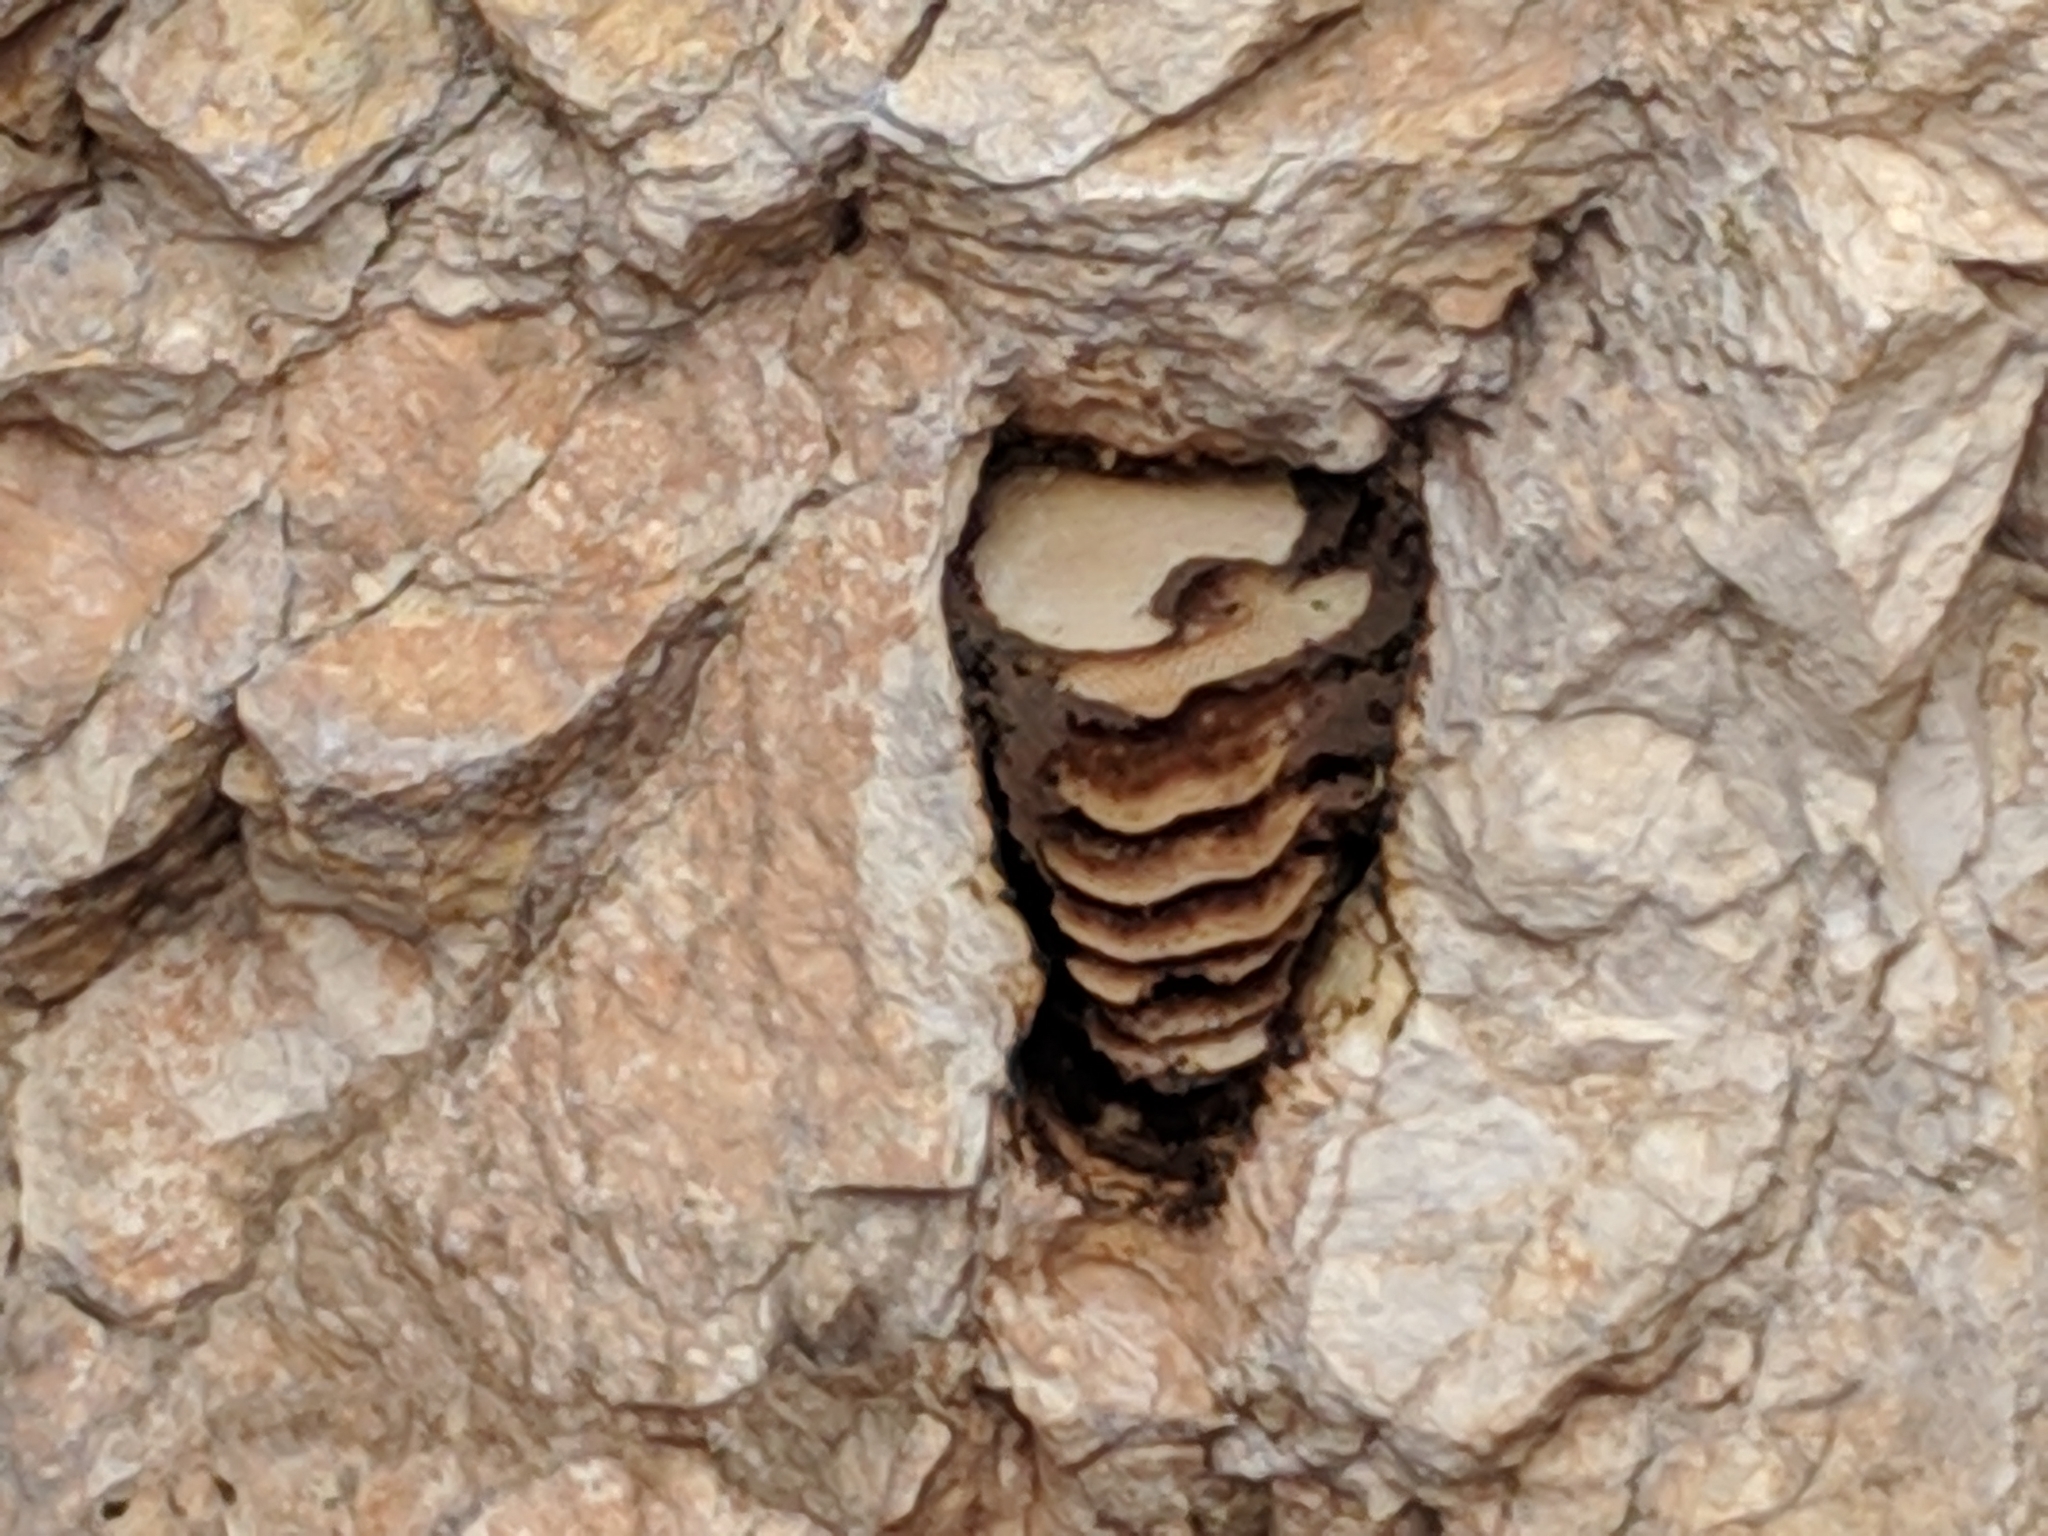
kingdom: Animalia
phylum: Arthropoda
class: Insecta
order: Hymenoptera
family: Apidae
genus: Apis
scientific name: Apis mellifera
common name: Honey bee
